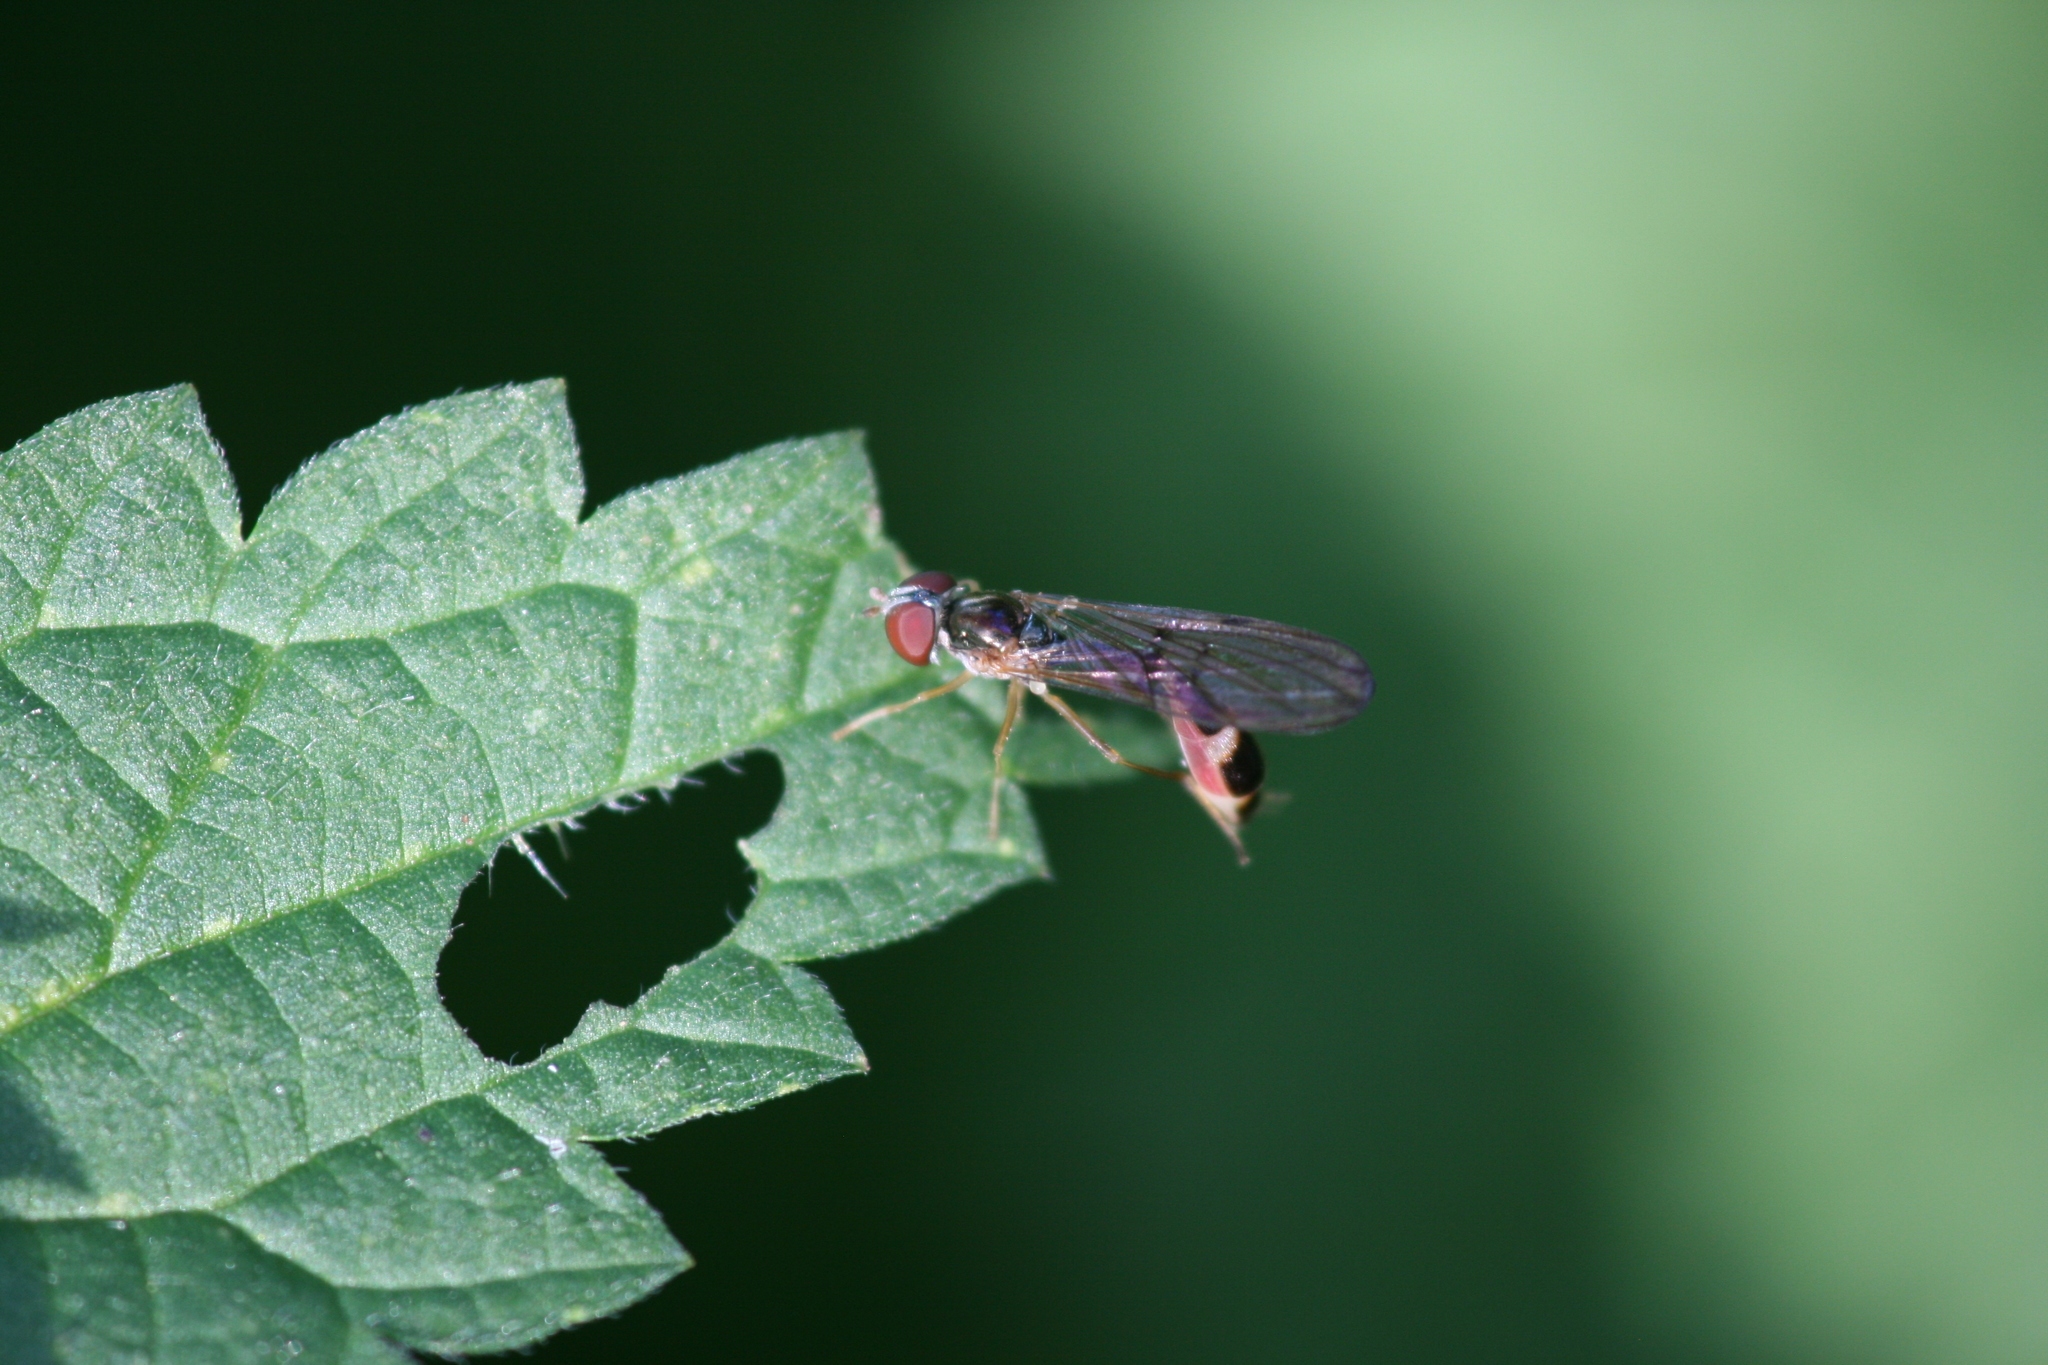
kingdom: Animalia
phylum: Arthropoda
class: Insecta
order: Diptera
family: Syrphidae
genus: Baccha
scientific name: Baccha elongata
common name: Common dainty
